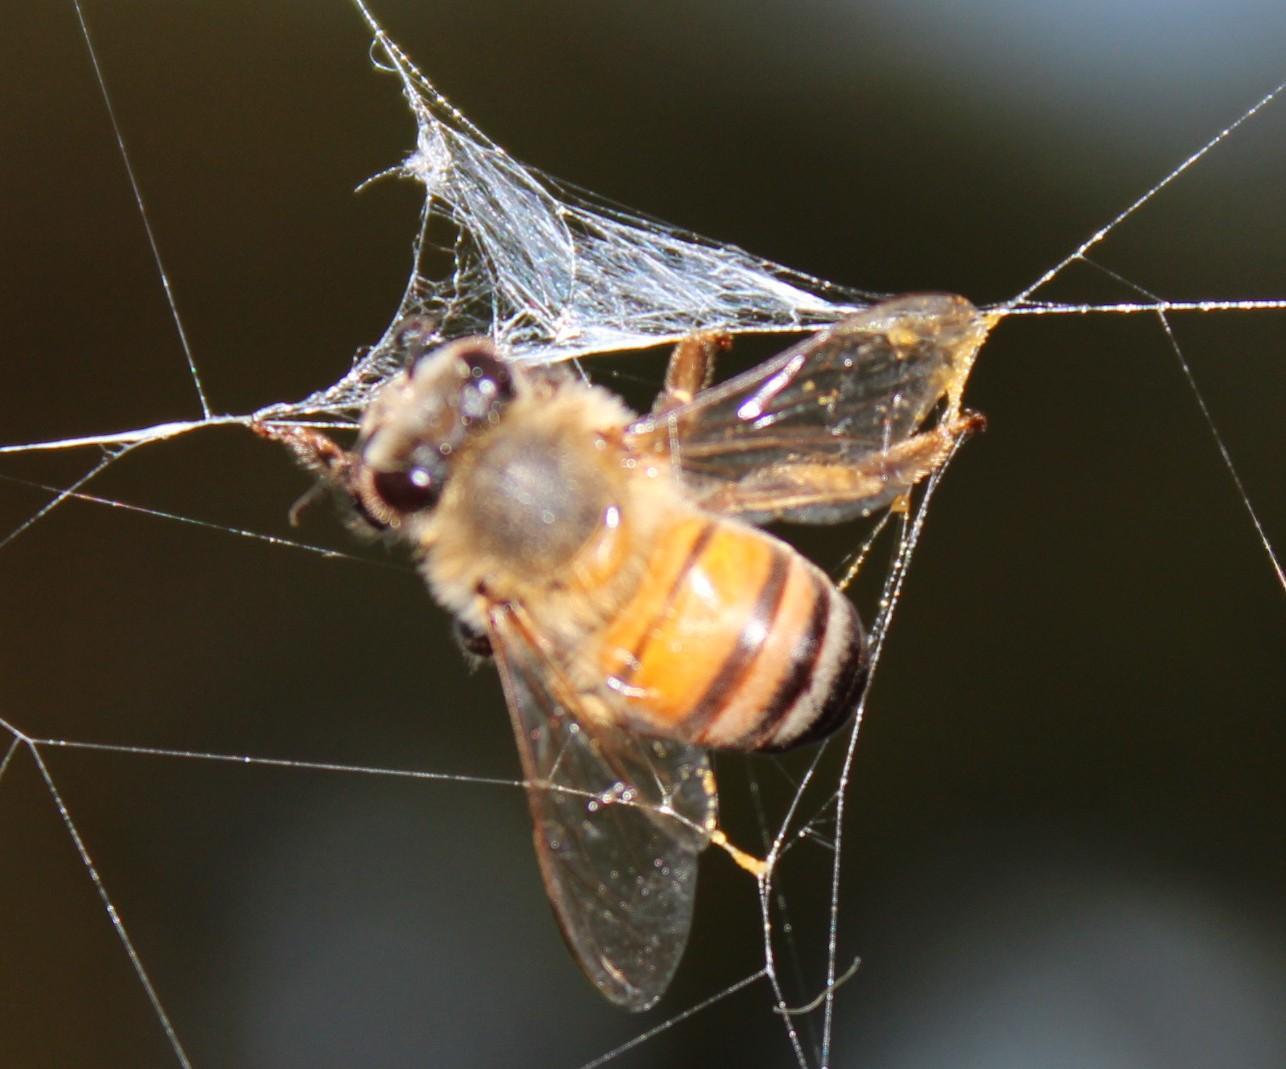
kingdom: Animalia
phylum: Arthropoda
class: Insecta
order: Hymenoptera
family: Apidae
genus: Apis
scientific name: Apis mellifera
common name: Honey bee
